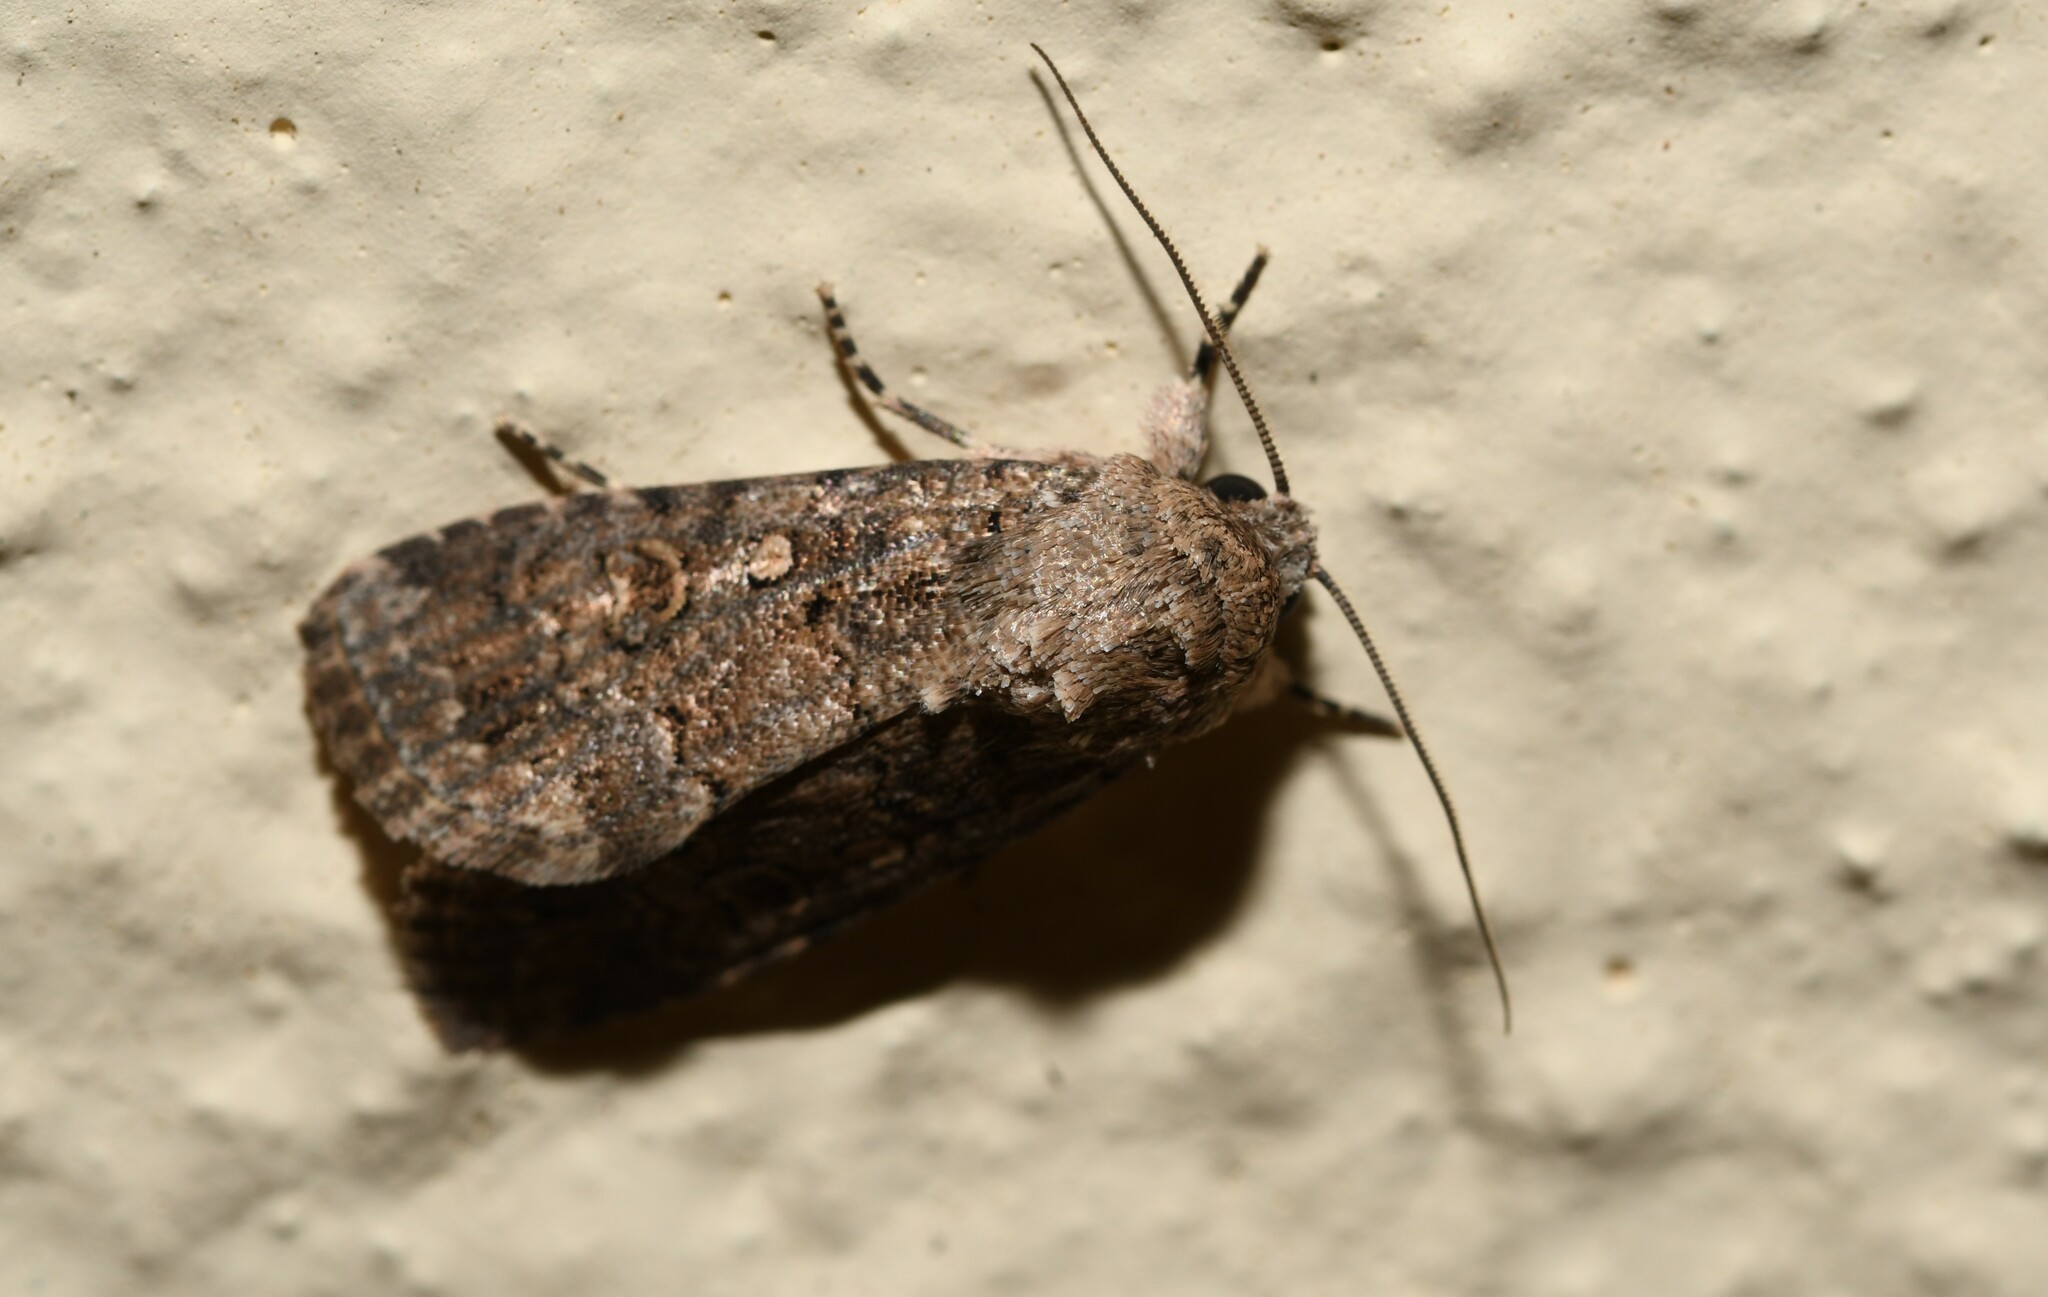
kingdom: Animalia
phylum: Arthropoda
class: Insecta
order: Lepidoptera
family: Noctuidae
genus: Spodoptera
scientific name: Spodoptera cilium
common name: Dark mottled willow
